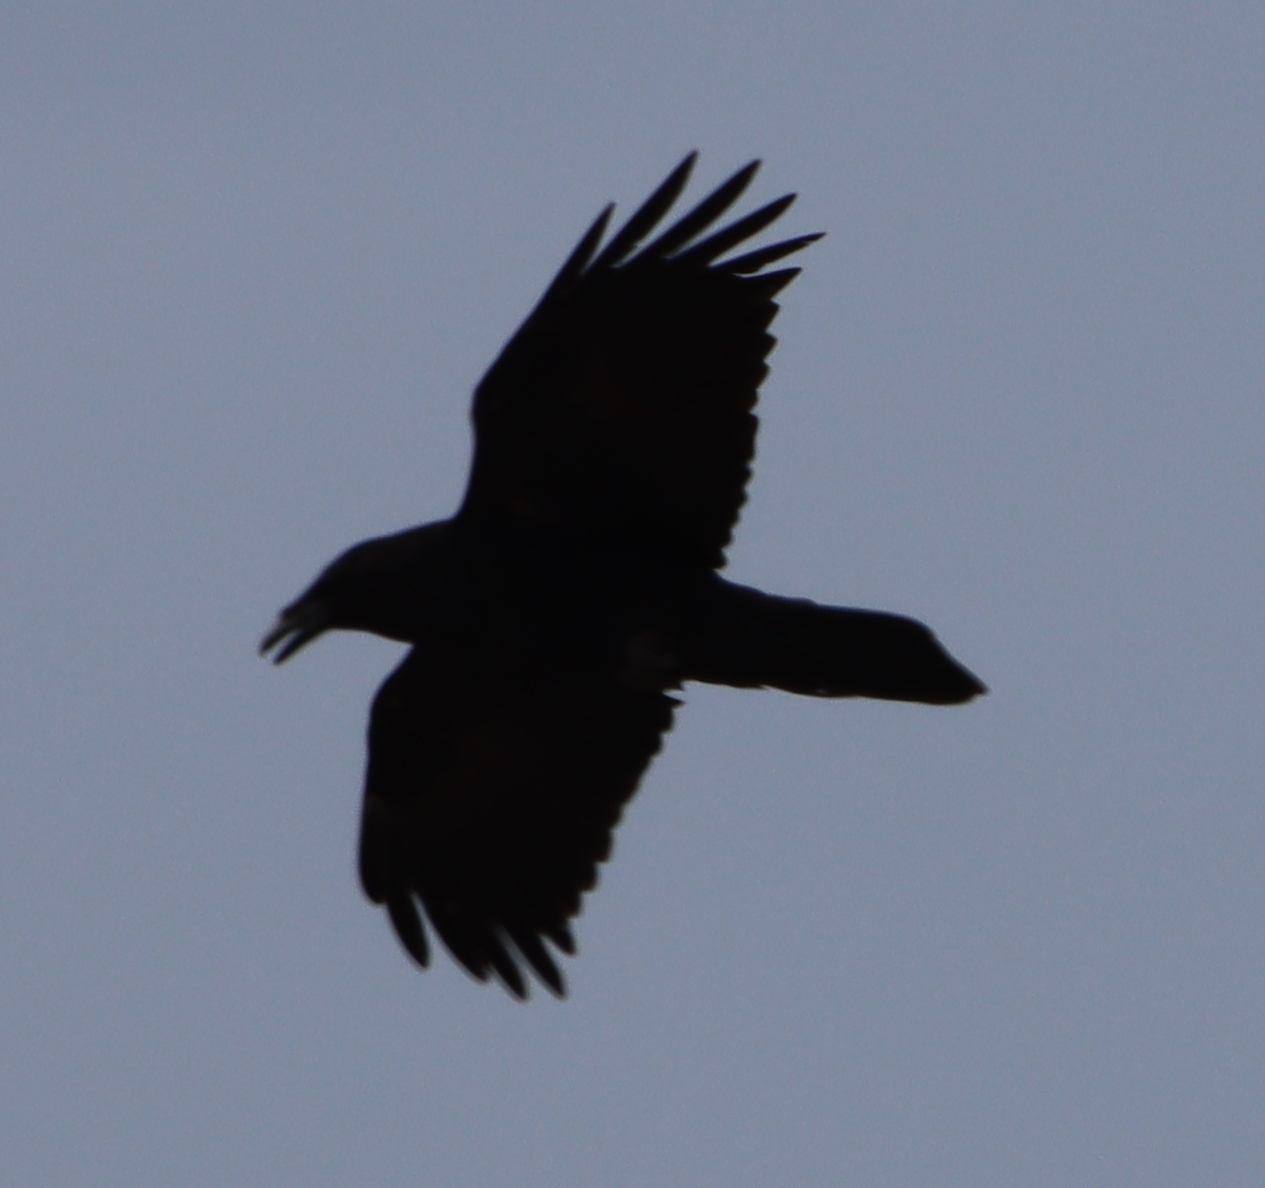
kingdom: Animalia
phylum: Chordata
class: Aves
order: Passeriformes
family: Corvidae
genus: Corvus
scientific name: Corvus corax
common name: Common raven
